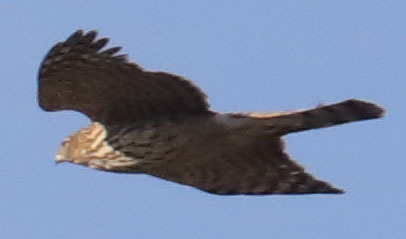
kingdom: Animalia
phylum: Chordata
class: Aves
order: Accipitriformes
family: Accipitridae
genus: Accipiter
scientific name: Accipiter cooperii
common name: Cooper's hawk
